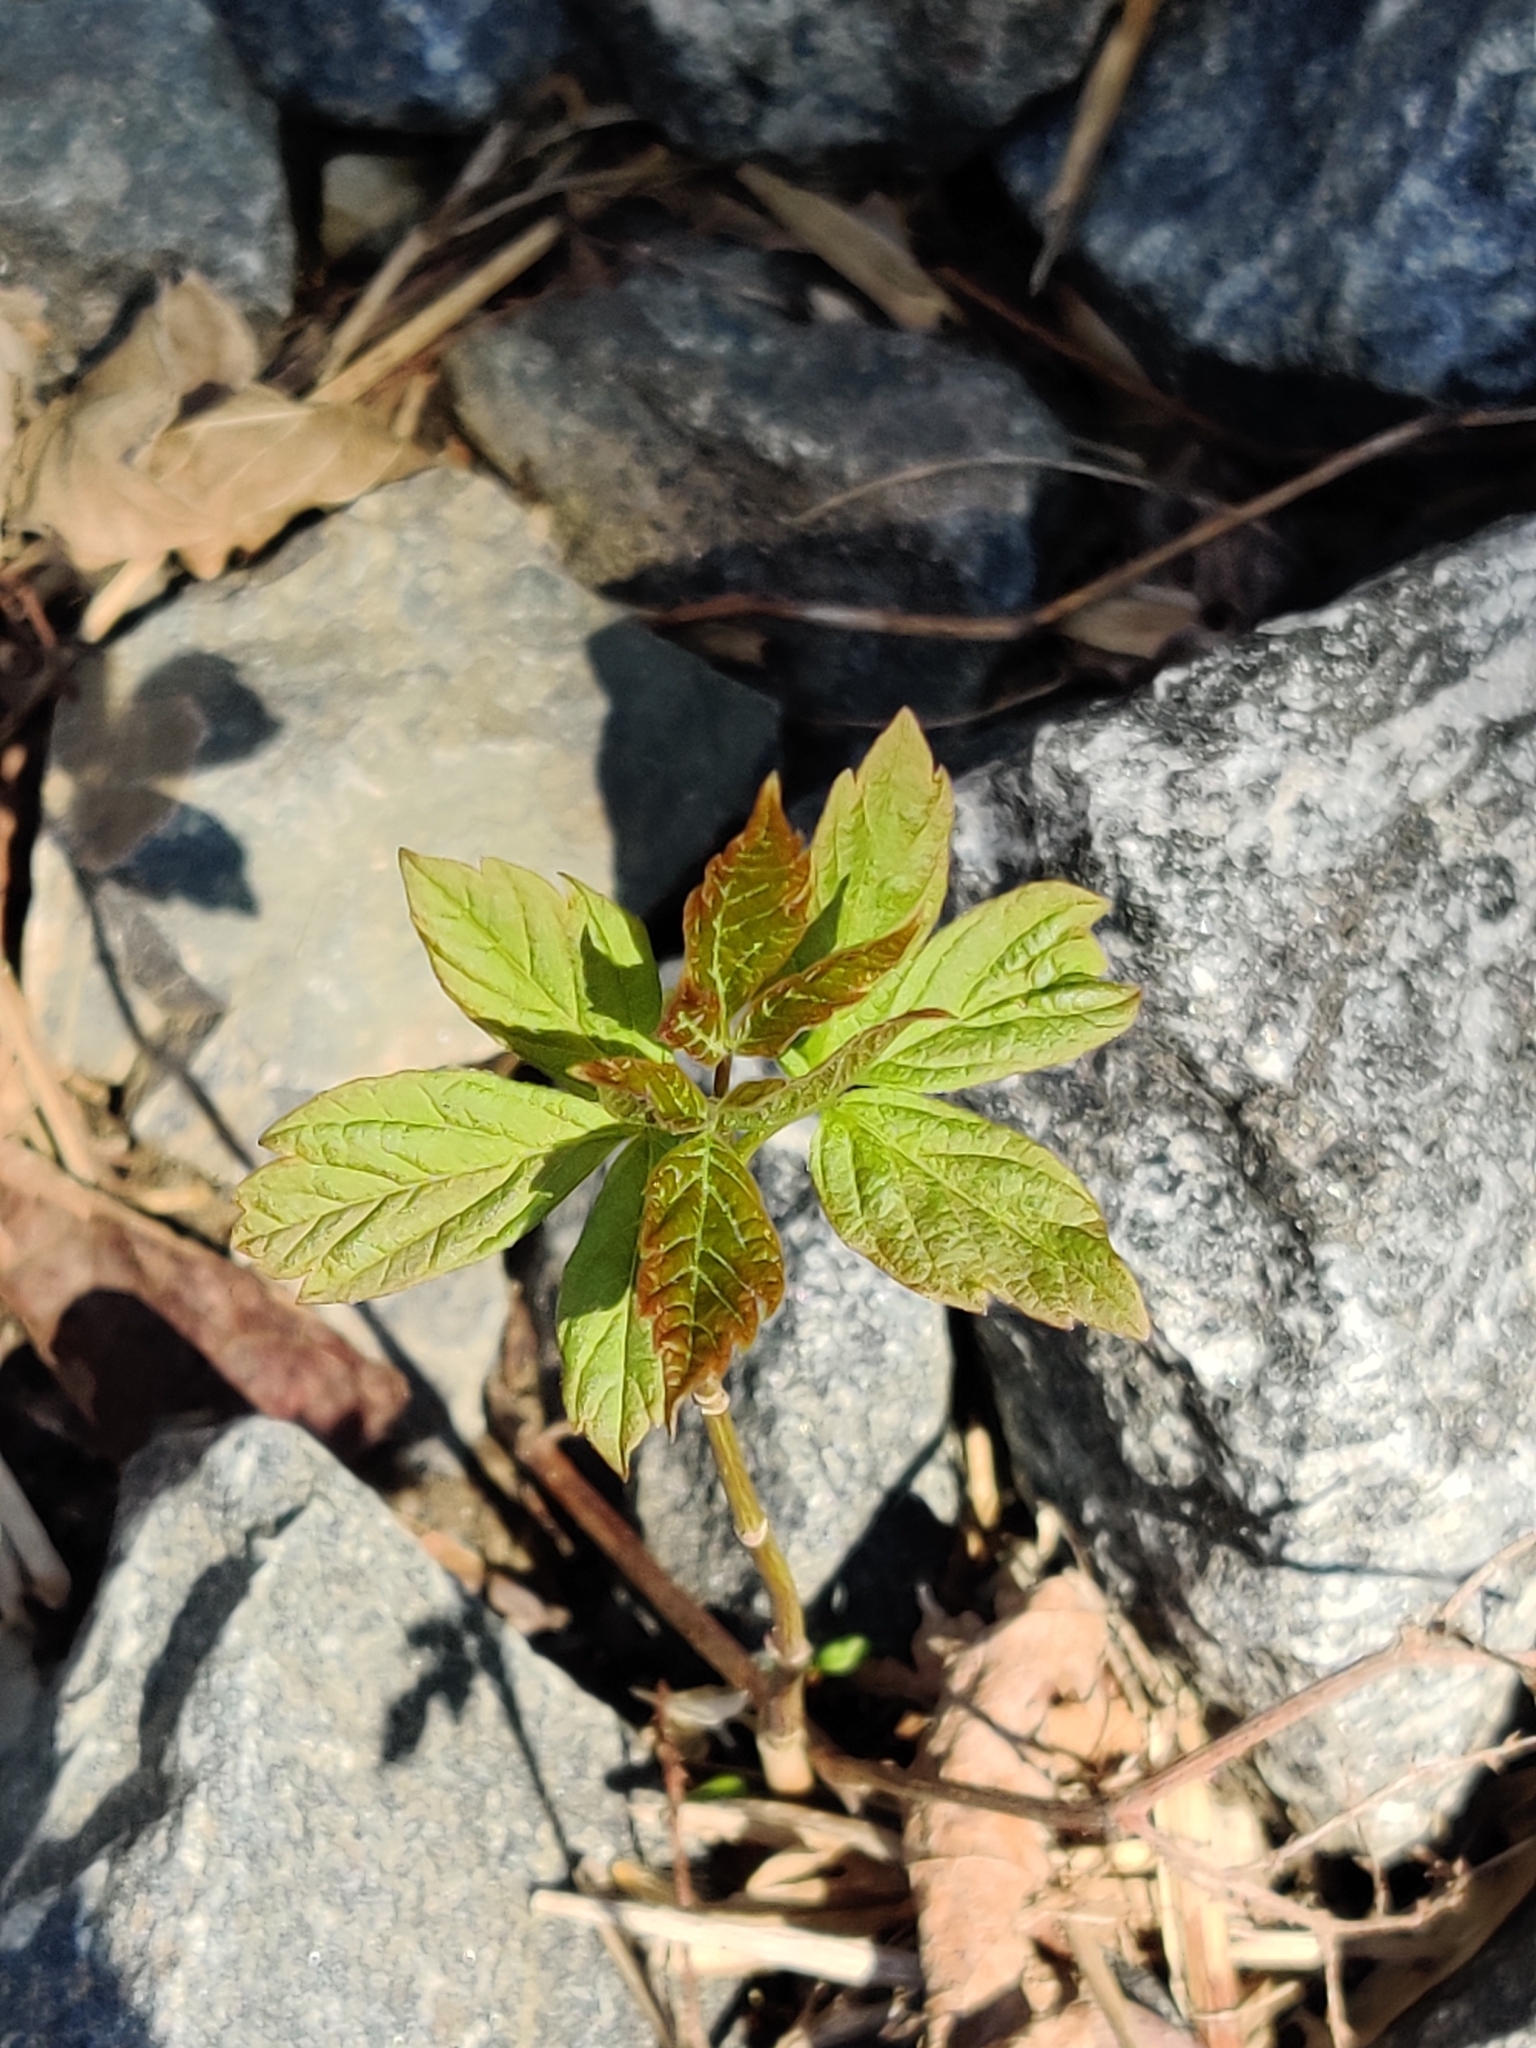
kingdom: Plantae
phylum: Tracheophyta
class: Magnoliopsida
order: Sapindales
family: Sapindaceae
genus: Acer
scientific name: Acer negundo
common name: Ashleaf maple
